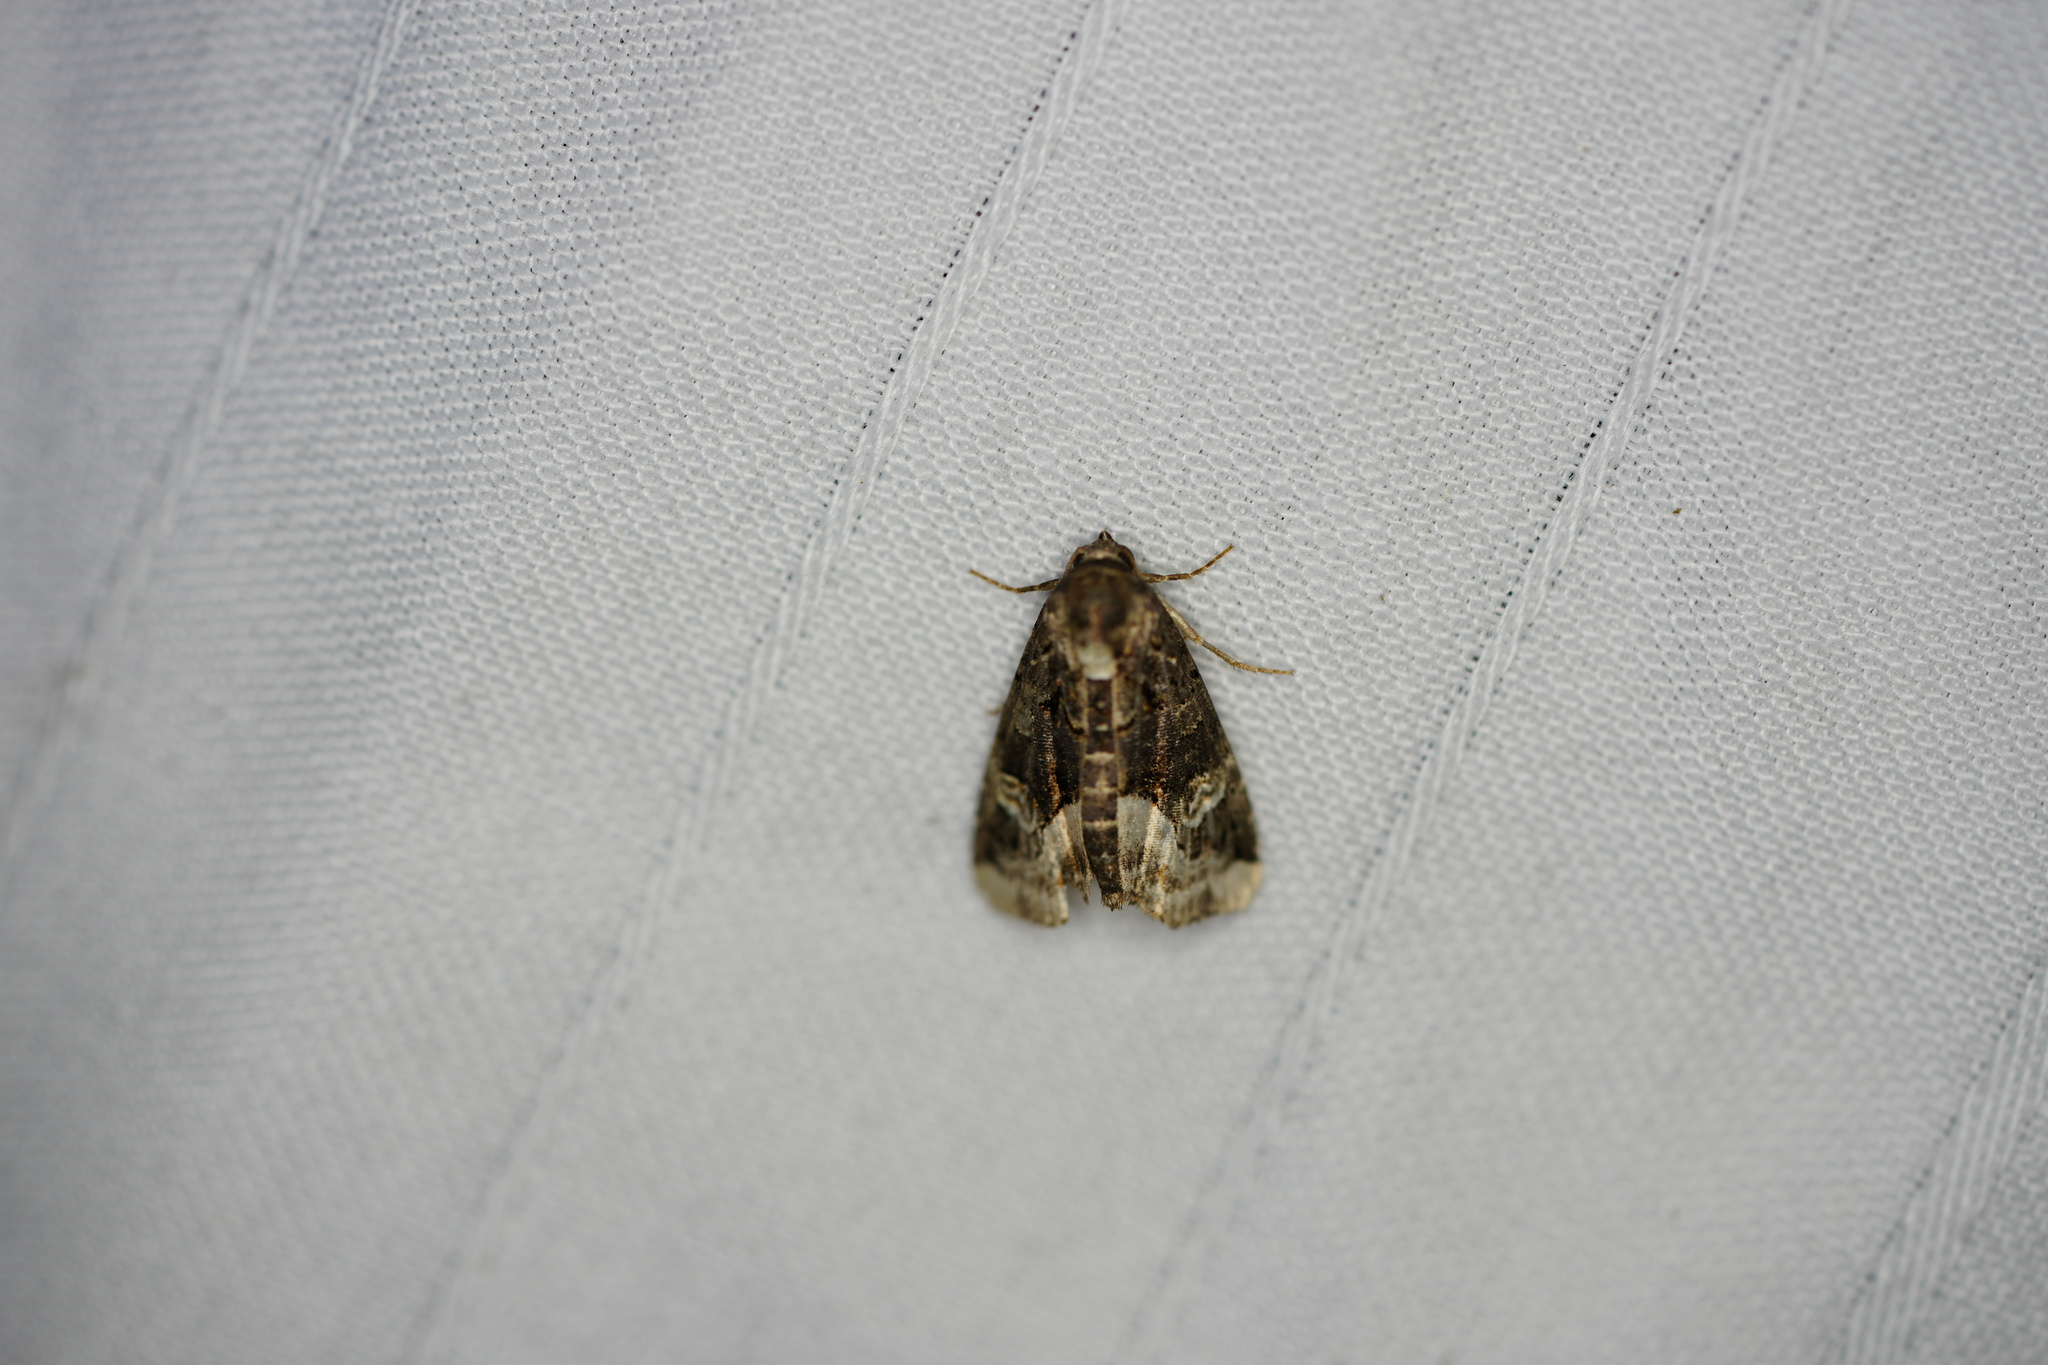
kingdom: Animalia
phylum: Arthropoda
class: Insecta
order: Lepidoptera
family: Noctuidae
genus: Homophoberia
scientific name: Homophoberia apicosa
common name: Black wedge-spot
